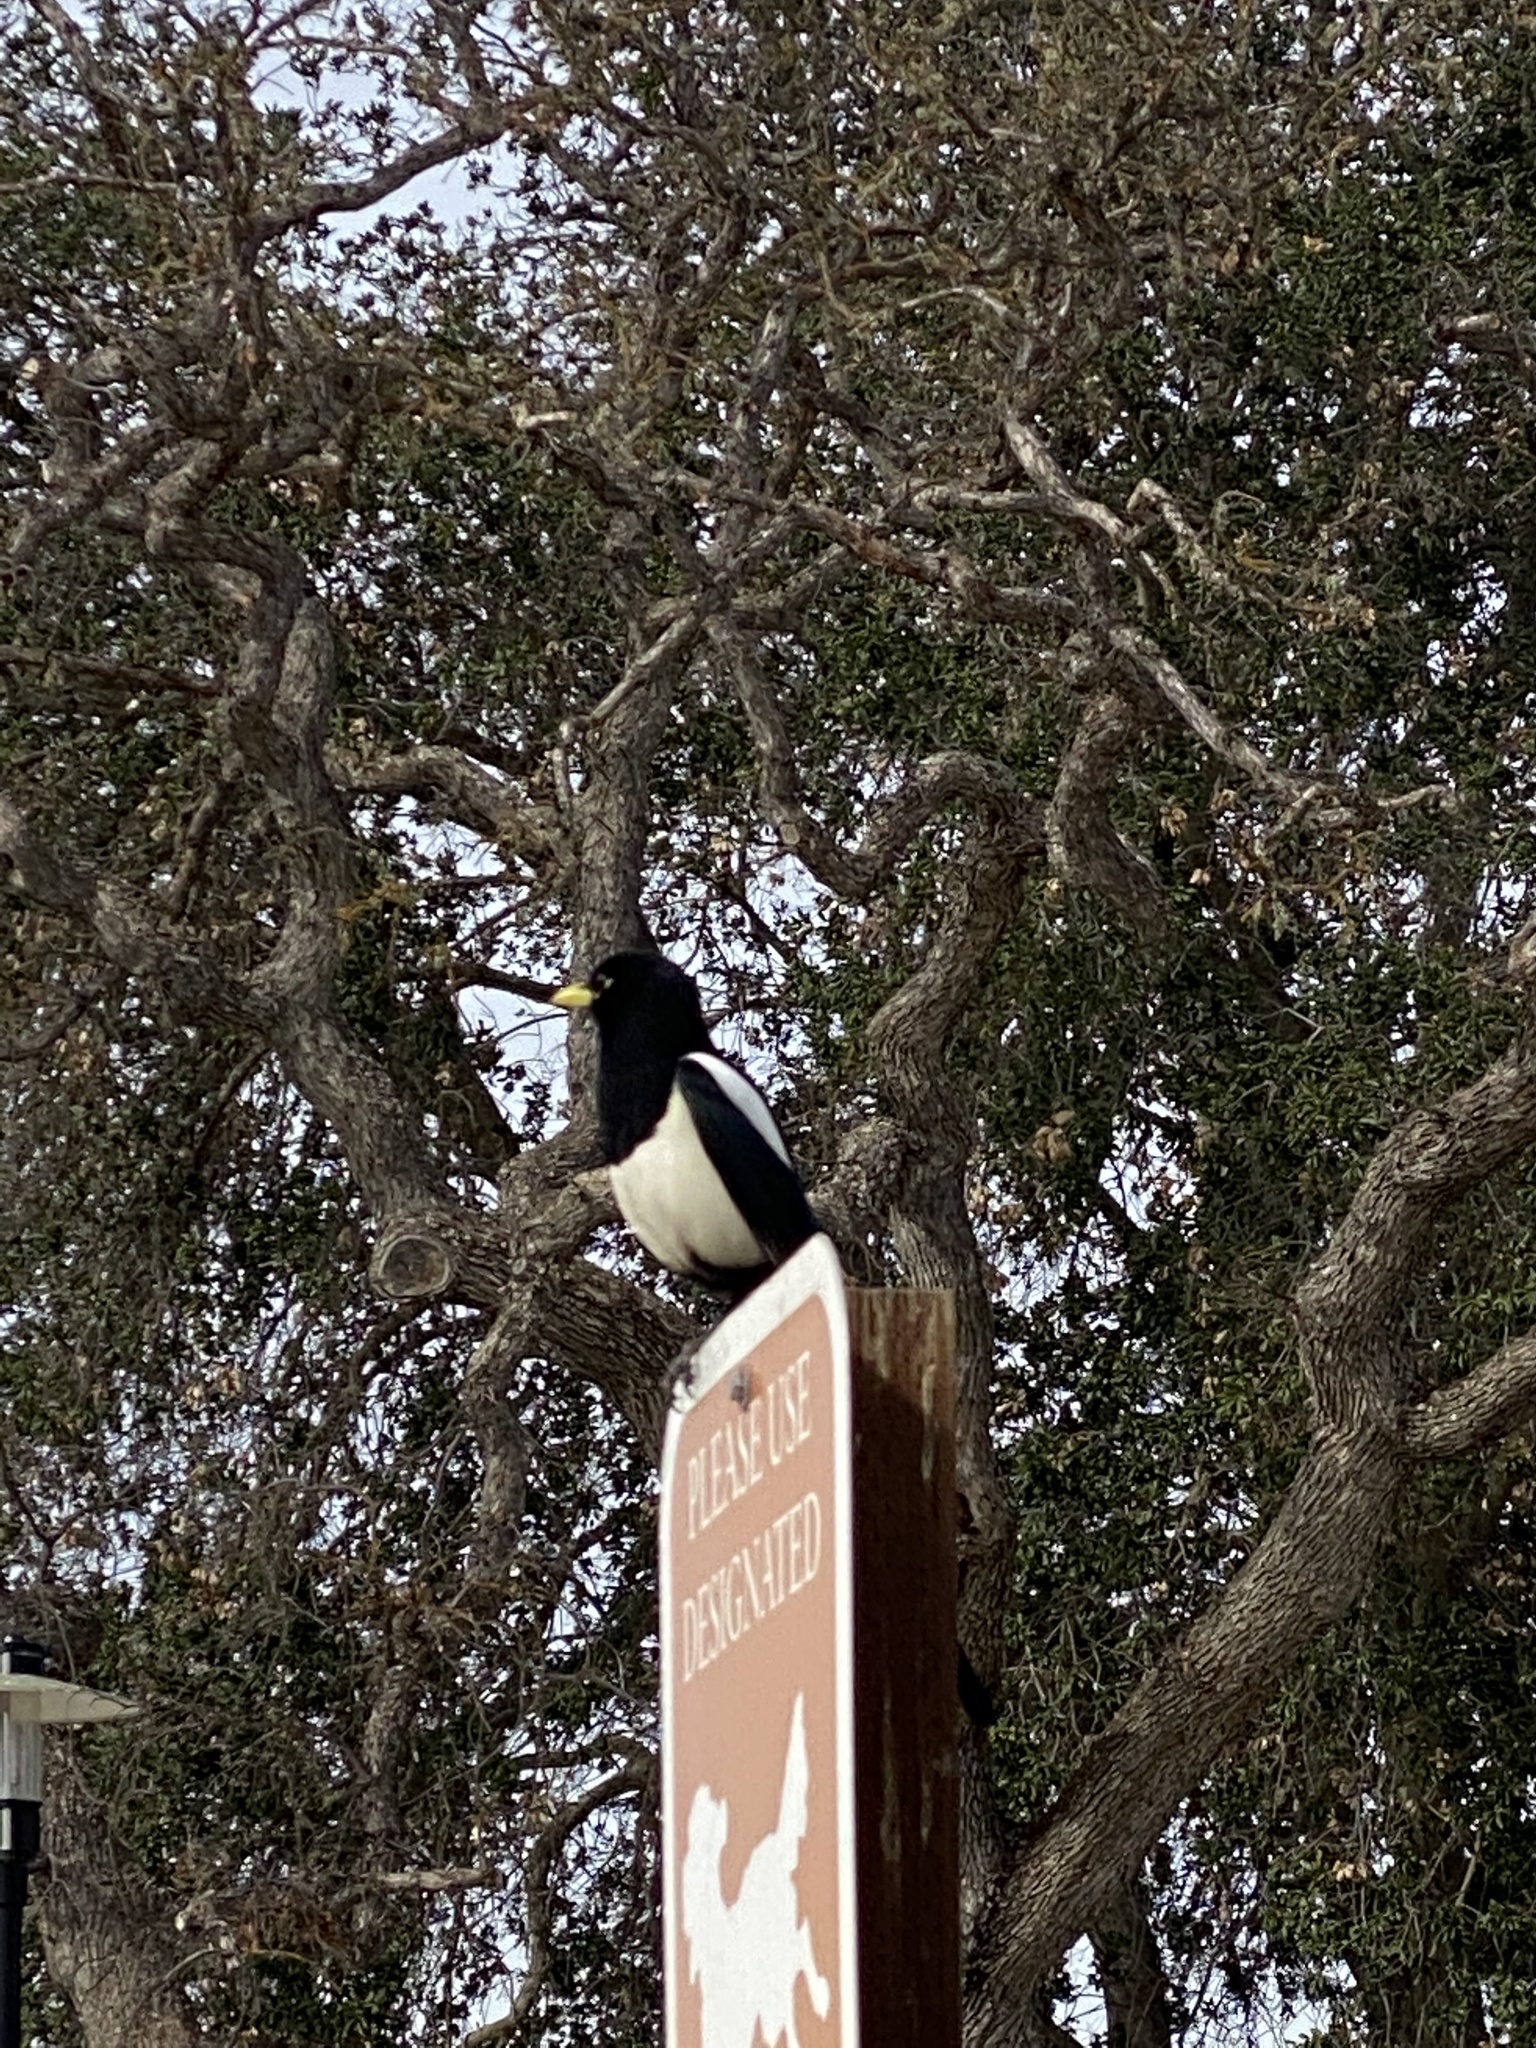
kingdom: Animalia
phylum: Chordata
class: Aves
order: Passeriformes
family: Corvidae
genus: Pica
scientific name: Pica nuttalli
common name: Yellow-billed magpie
